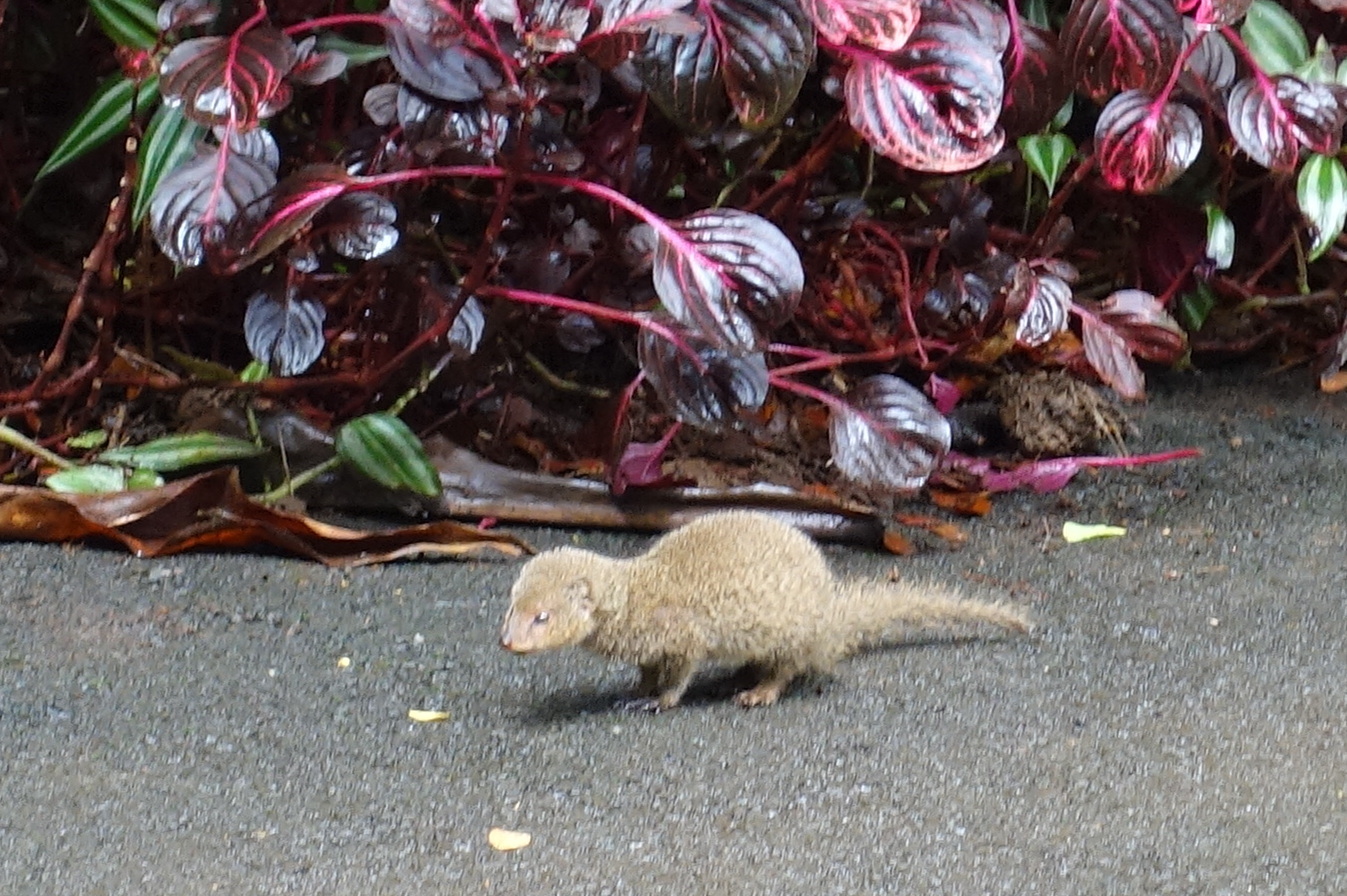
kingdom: Animalia
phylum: Chordata
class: Mammalia
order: Carnivora
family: Herpestidae
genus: Herpestes
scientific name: Herpestes javanicus
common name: Small asian mongoose
